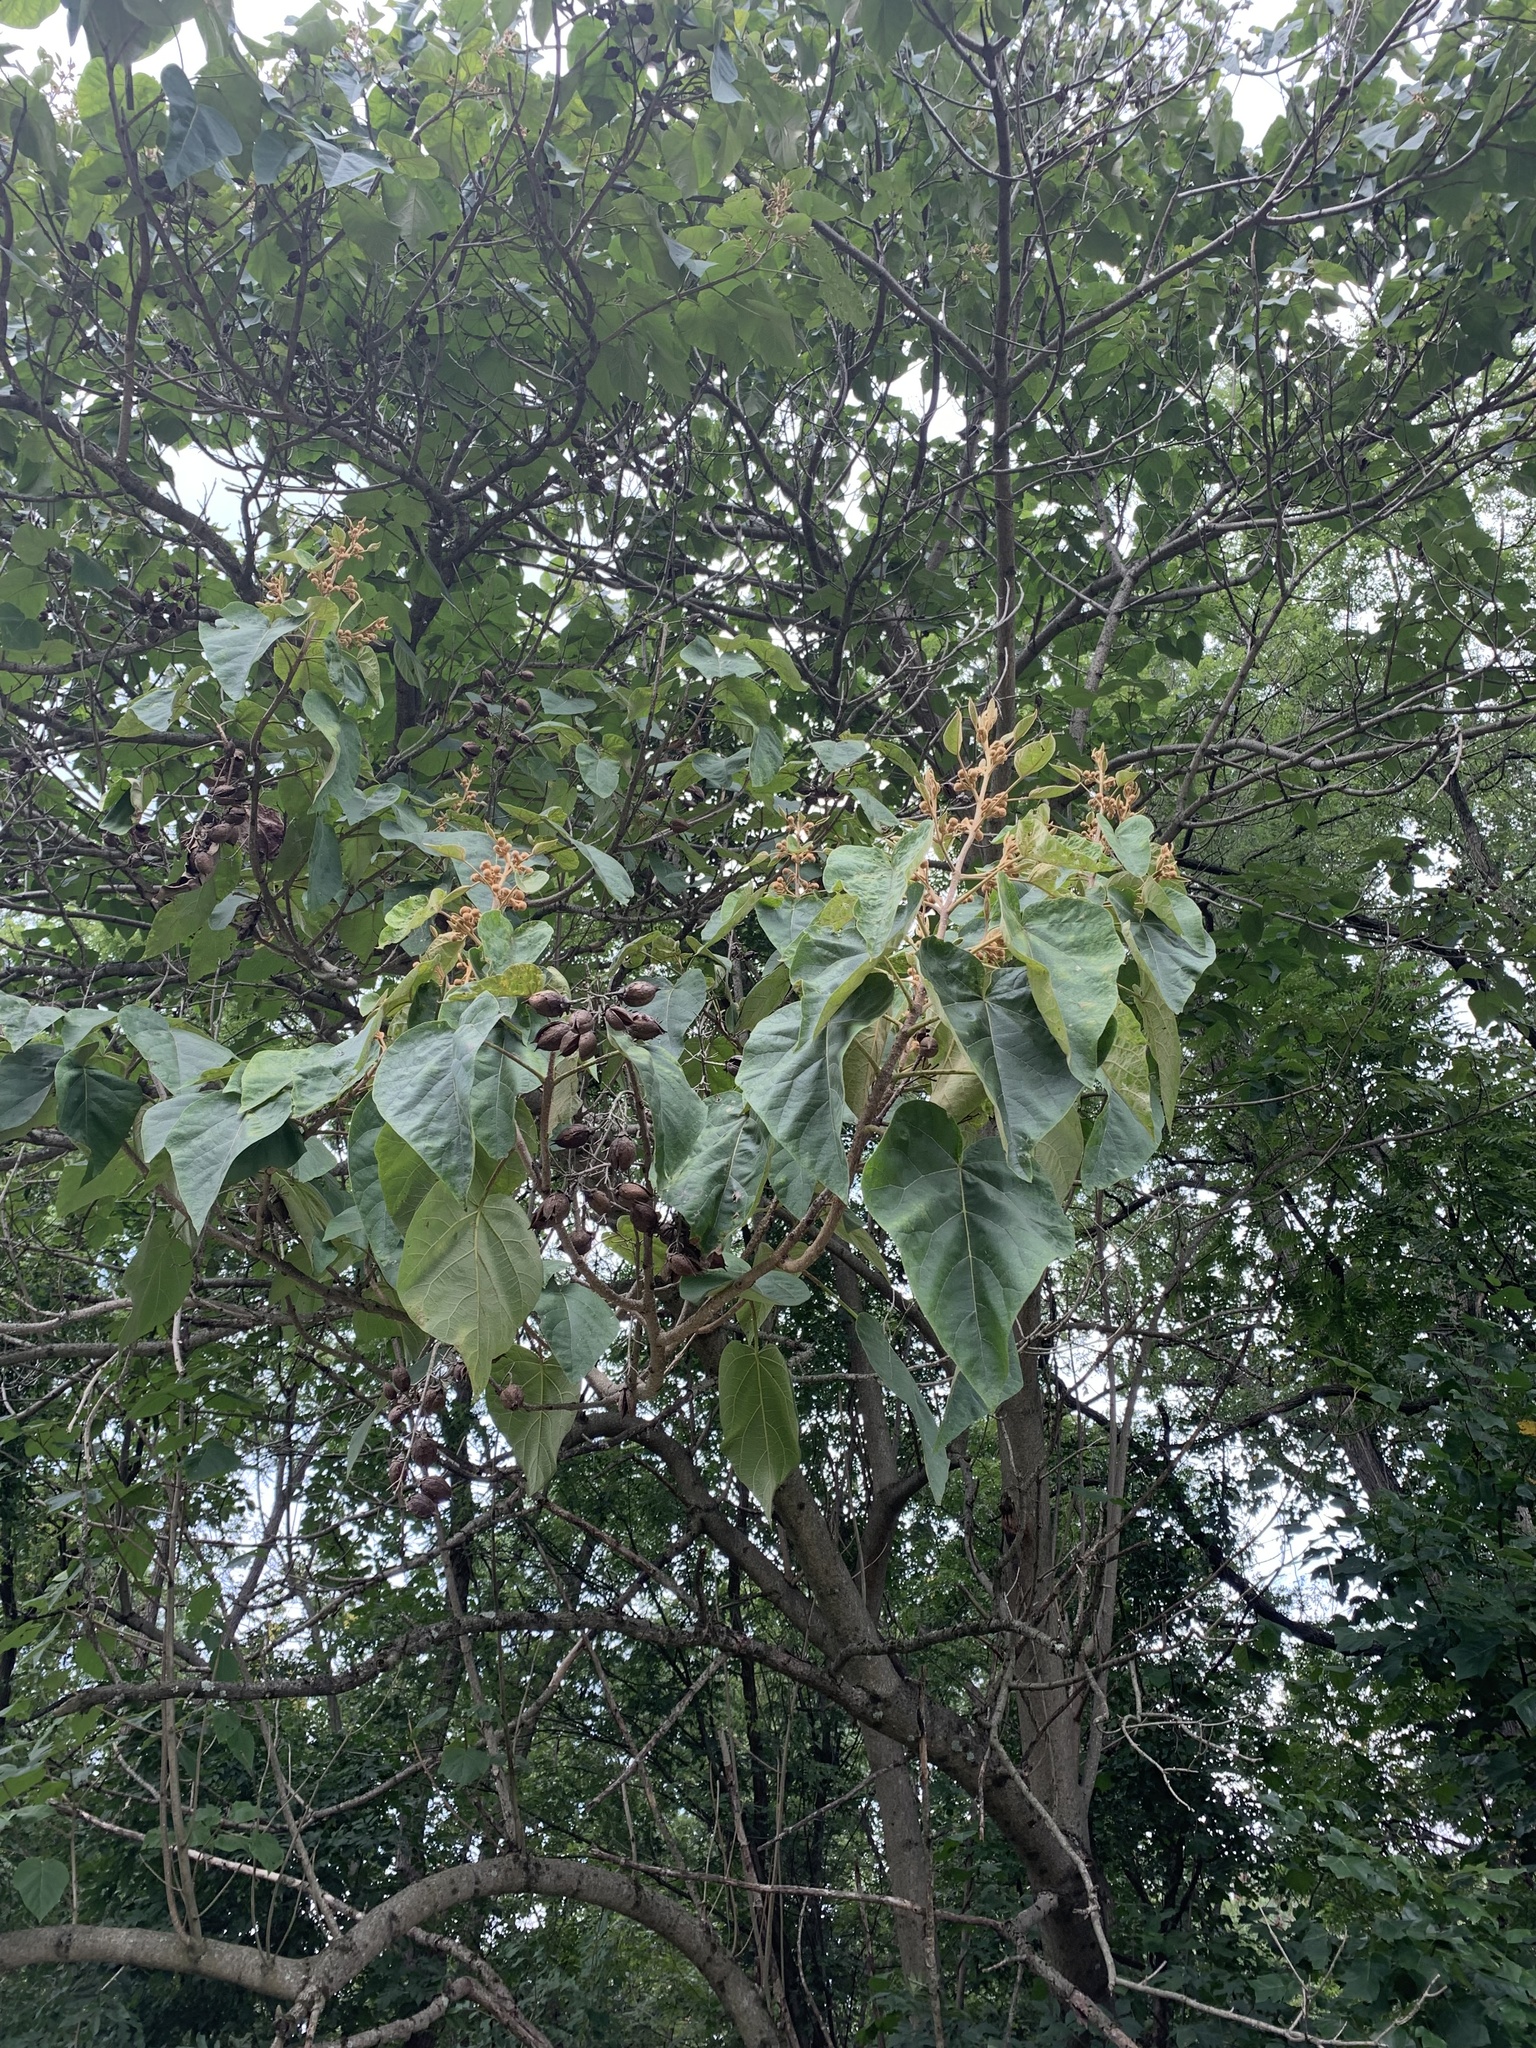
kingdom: Plantae
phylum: Tracheophyta
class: Magnoliopsida
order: Lamiales
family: Paulowniaceae
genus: Paulownia
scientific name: Paulownia tomentosa
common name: Foxglove-tree
